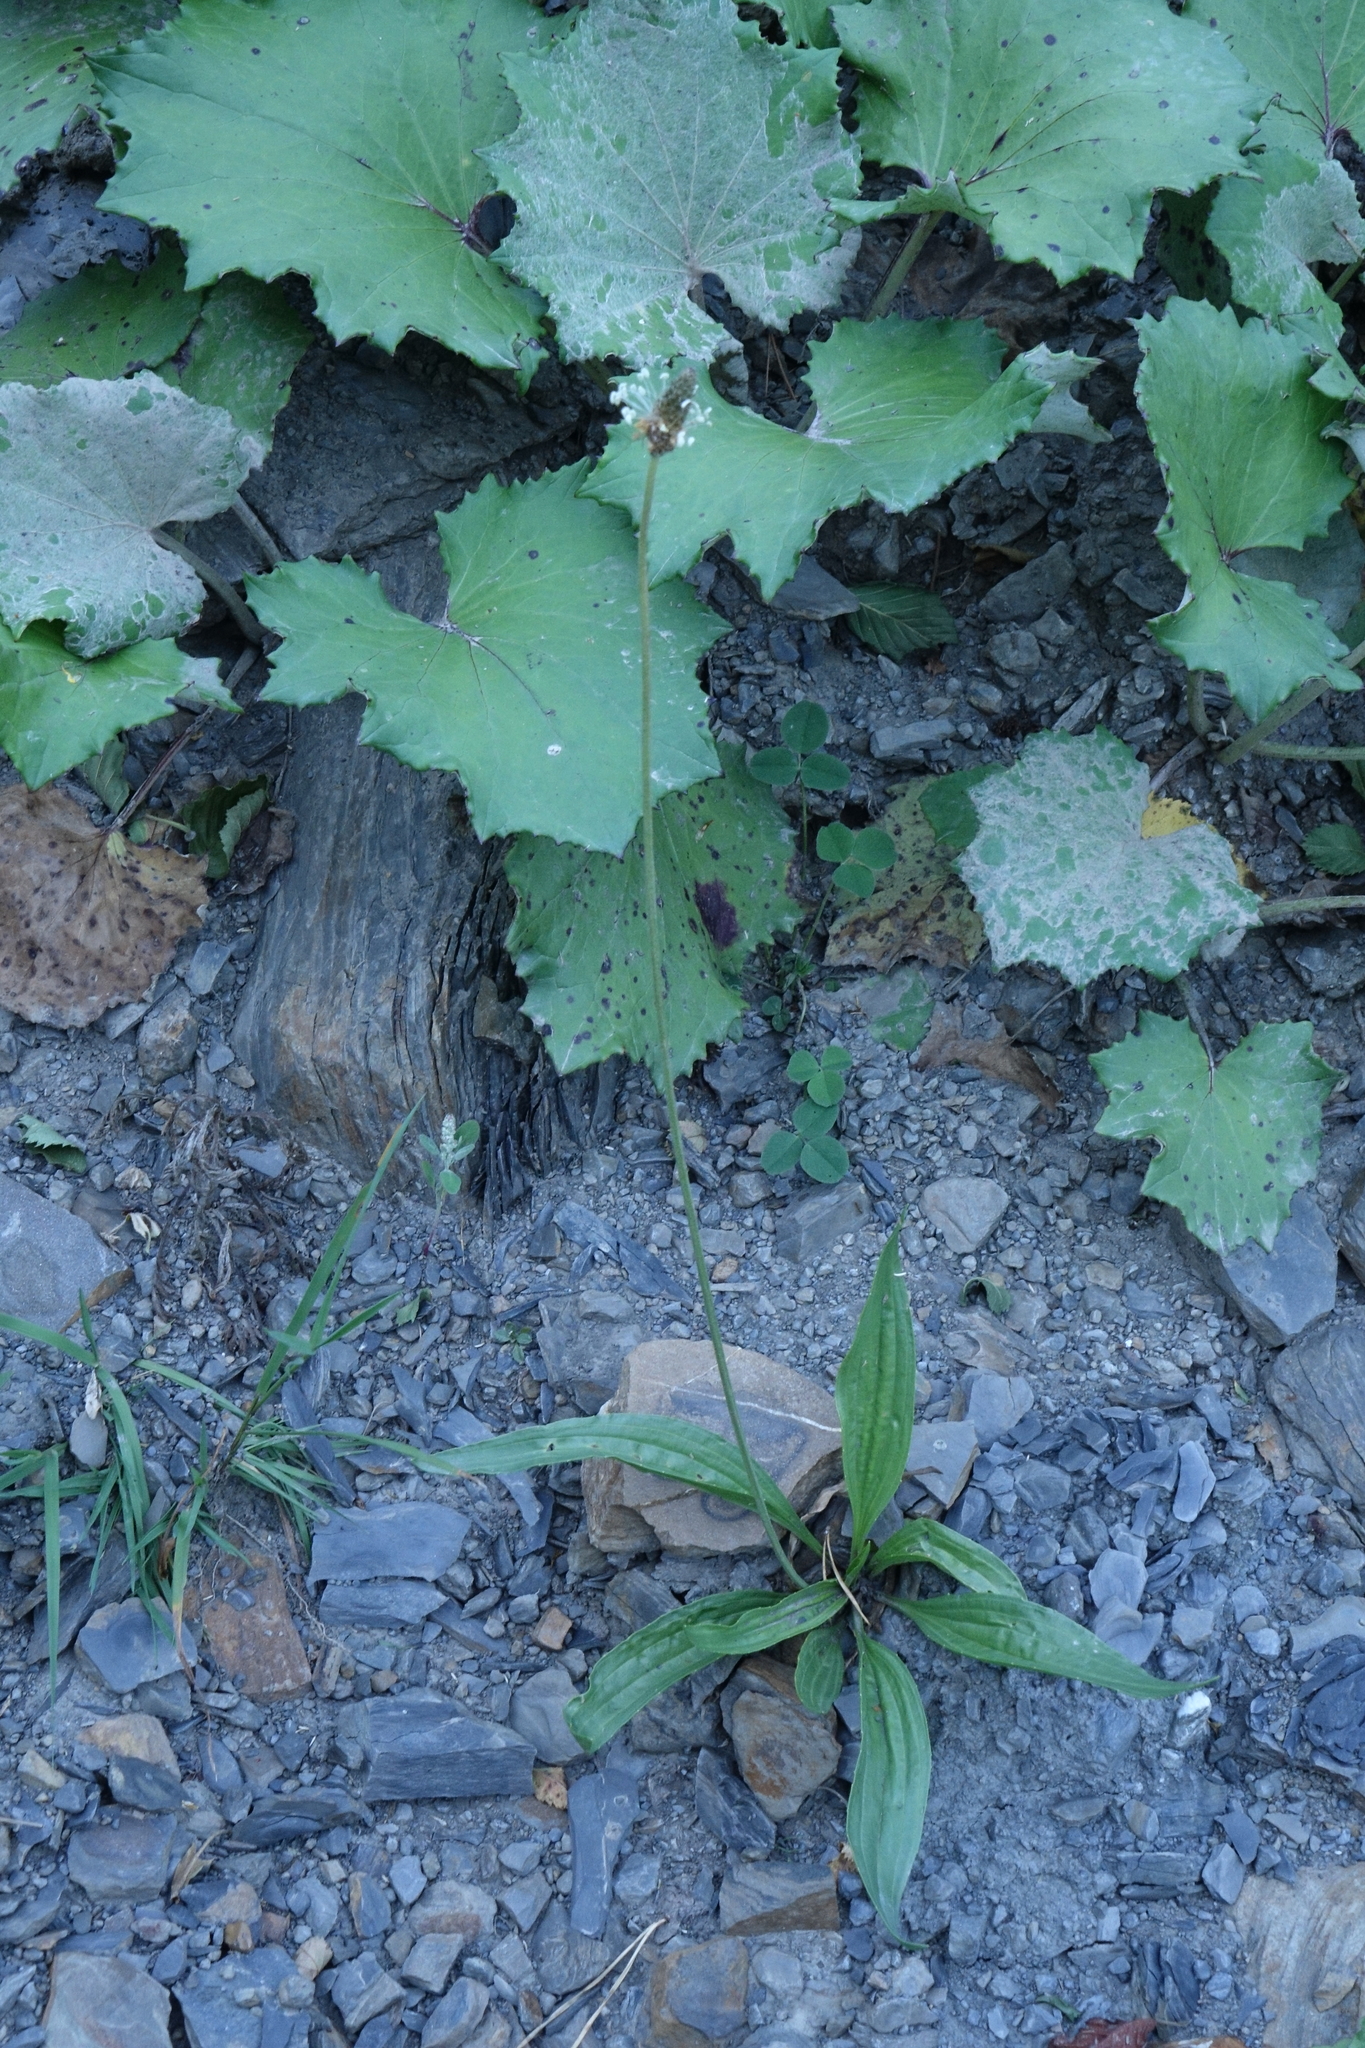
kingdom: Plantae
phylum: Tracheophyta
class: Magnoliopsida
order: Asterales
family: Asteraceae
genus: Tussilago
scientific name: Tussilago farfara
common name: Coltsfoot
